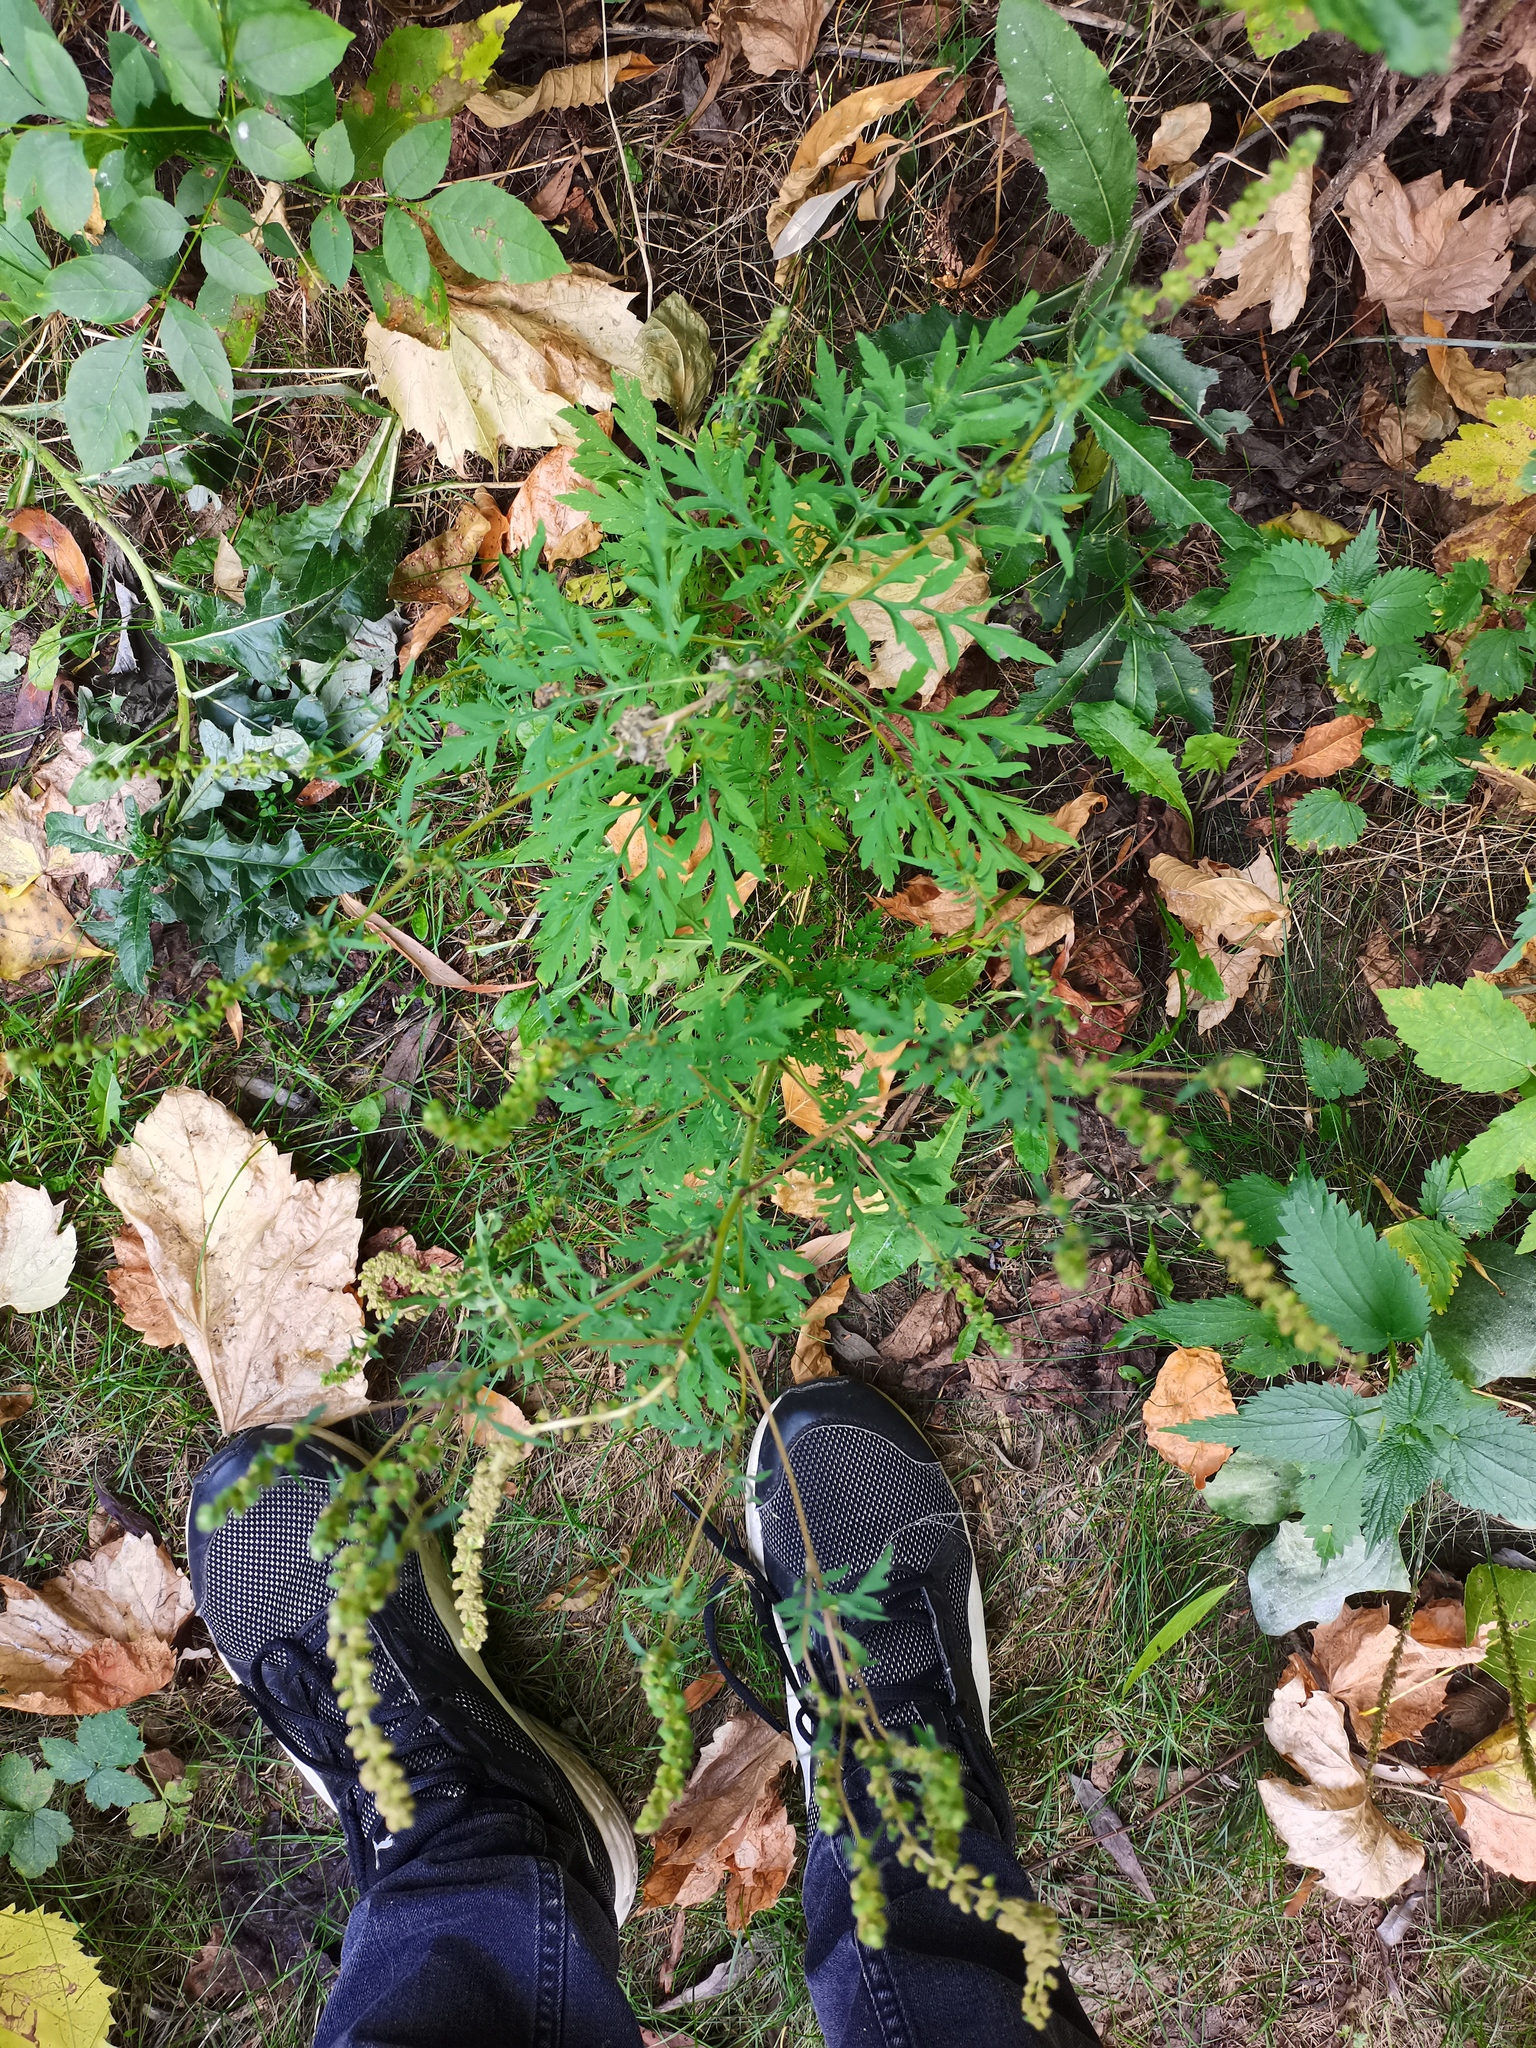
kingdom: Plantae
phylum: Tracheophyta
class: Magnoliopsida
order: Asterales
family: Asteraceae
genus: Ambrosia
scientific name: Ambrosia artemisiifolia
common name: Annual ragweed
